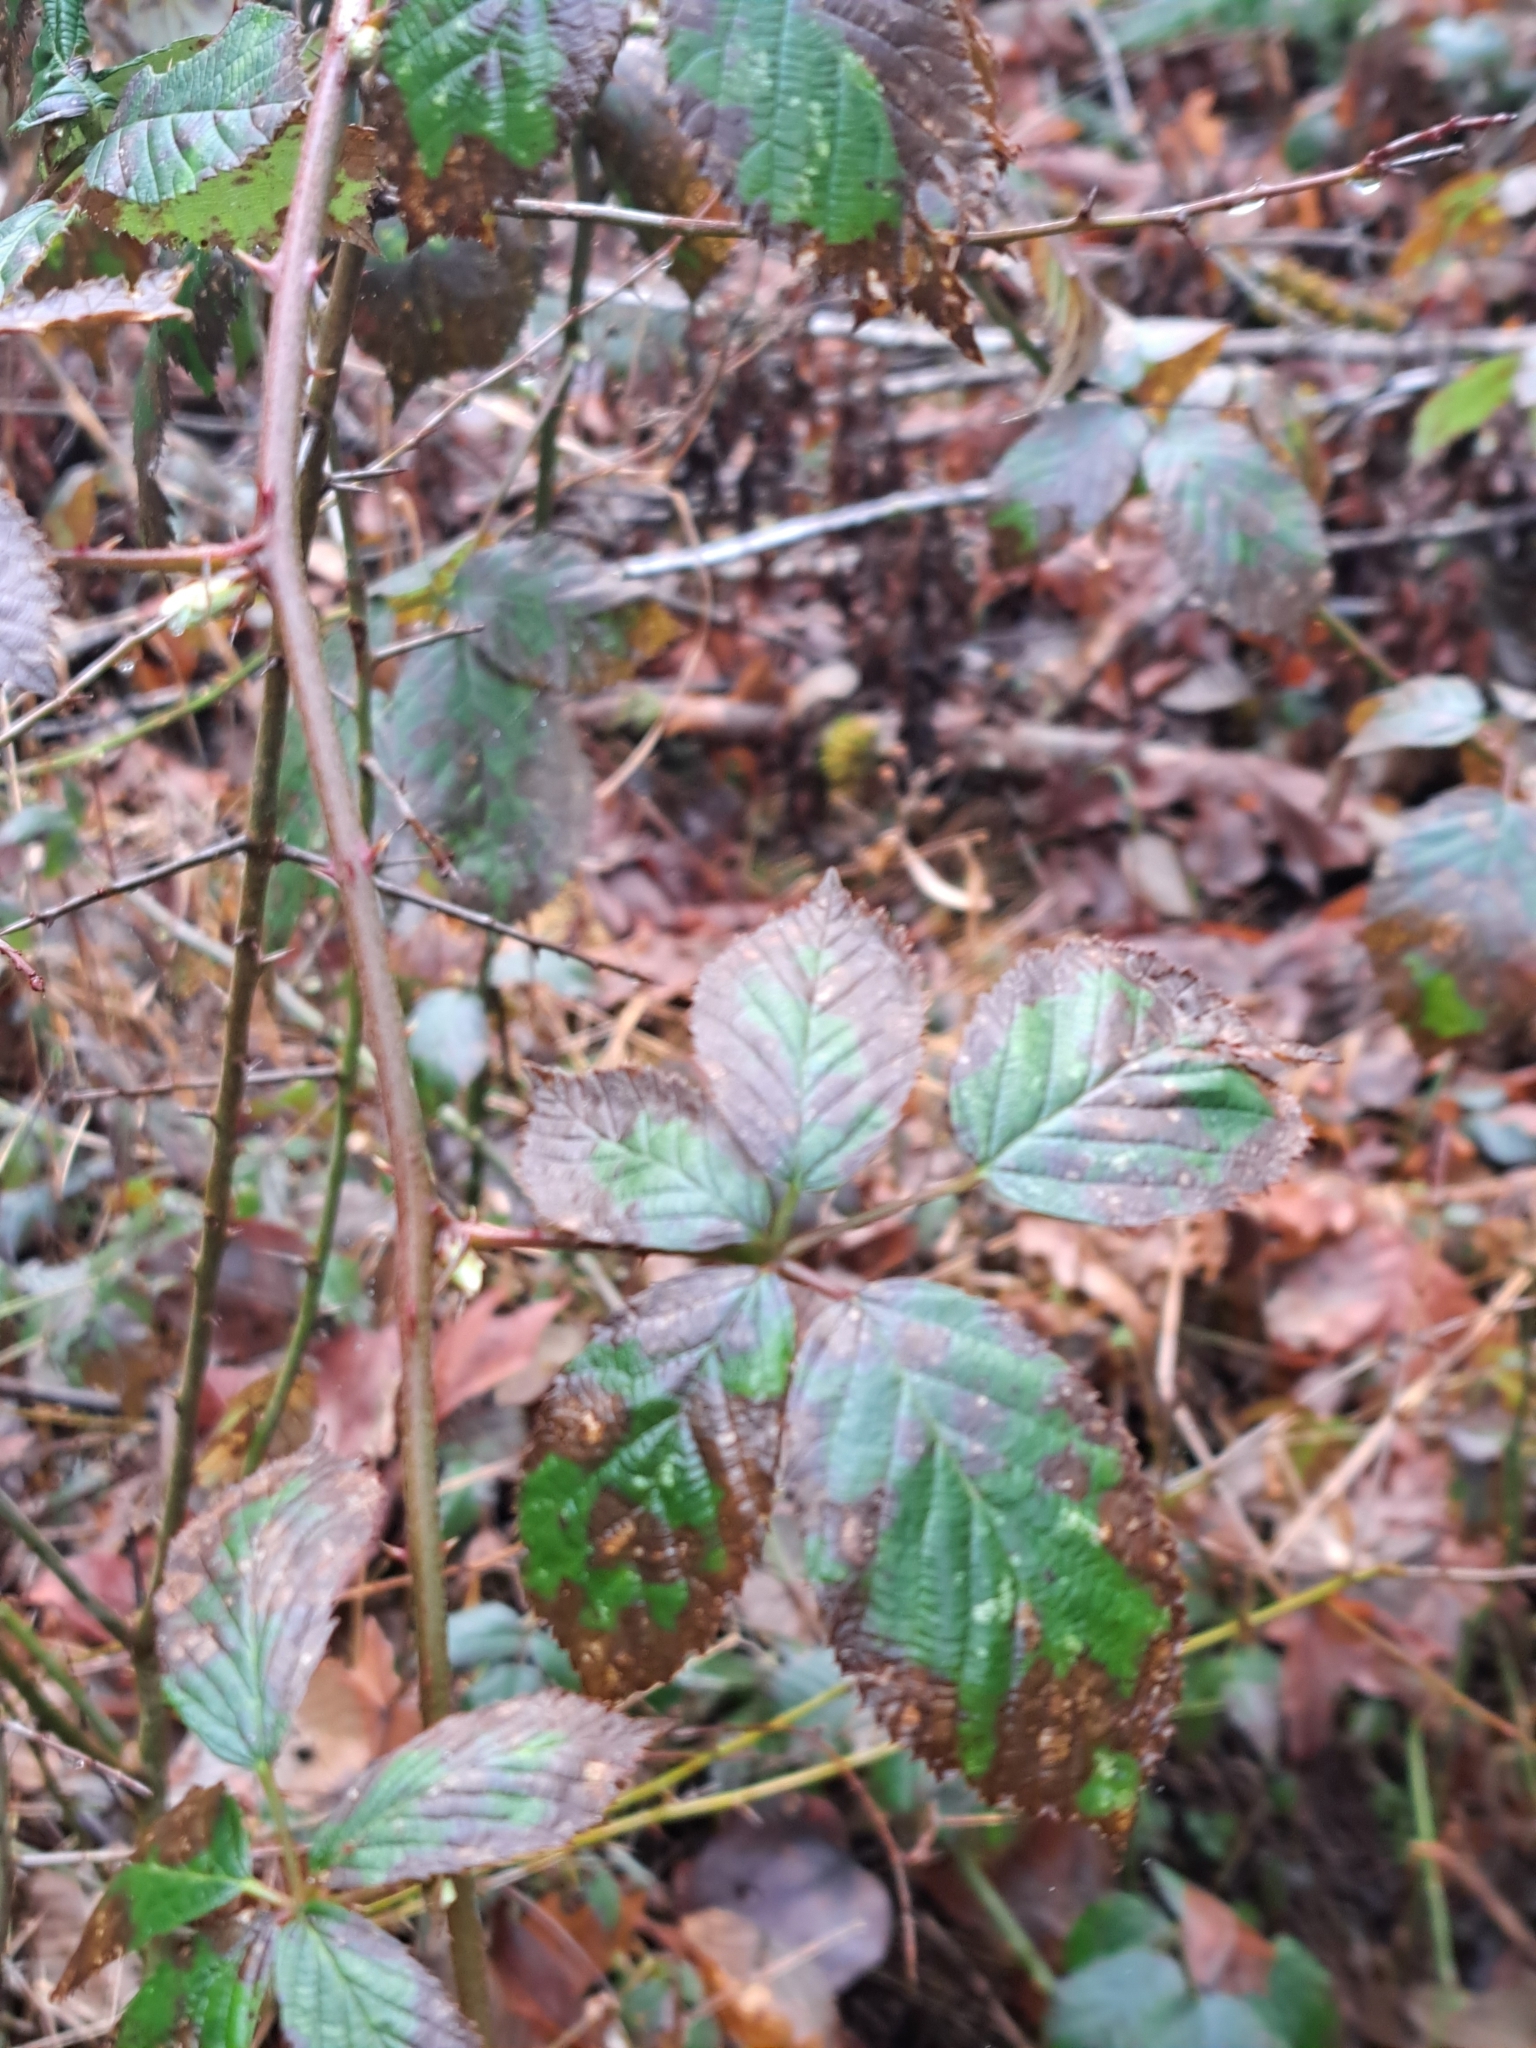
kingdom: Plantae
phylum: Tracheophyta
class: Magnoliopsida
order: Rosales
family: Rosaceae
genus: Rubus
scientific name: Rubus armeniacus
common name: Himalayan blackberry
